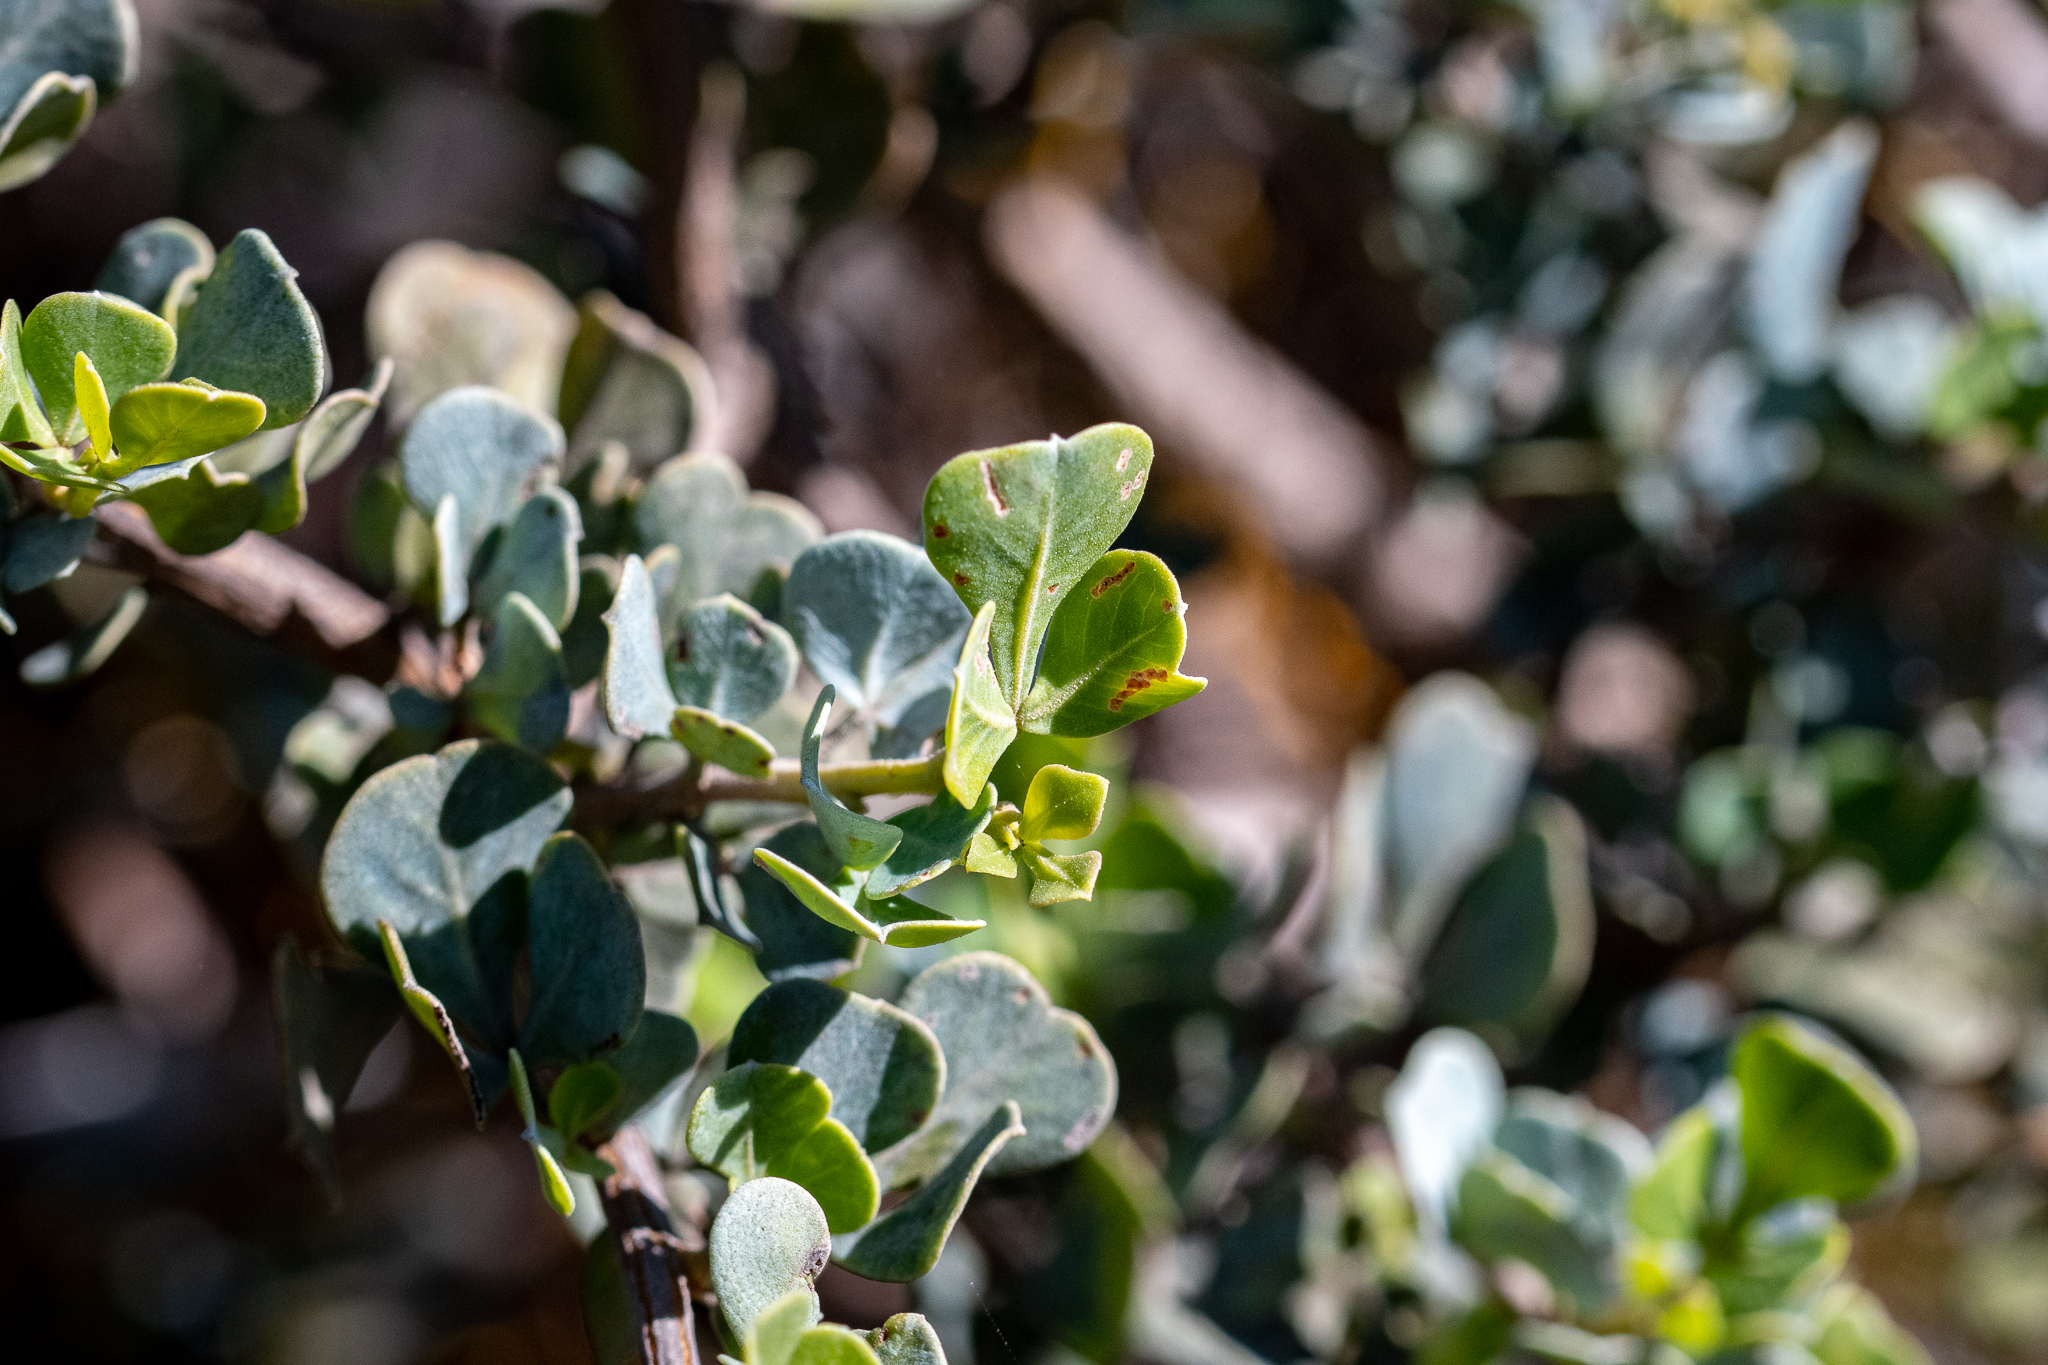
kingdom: Plantae
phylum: Tracheophyta
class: Magnoliopsida
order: Sapindales
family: Anacardiaceae
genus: Searsia
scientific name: Searsia glauca
